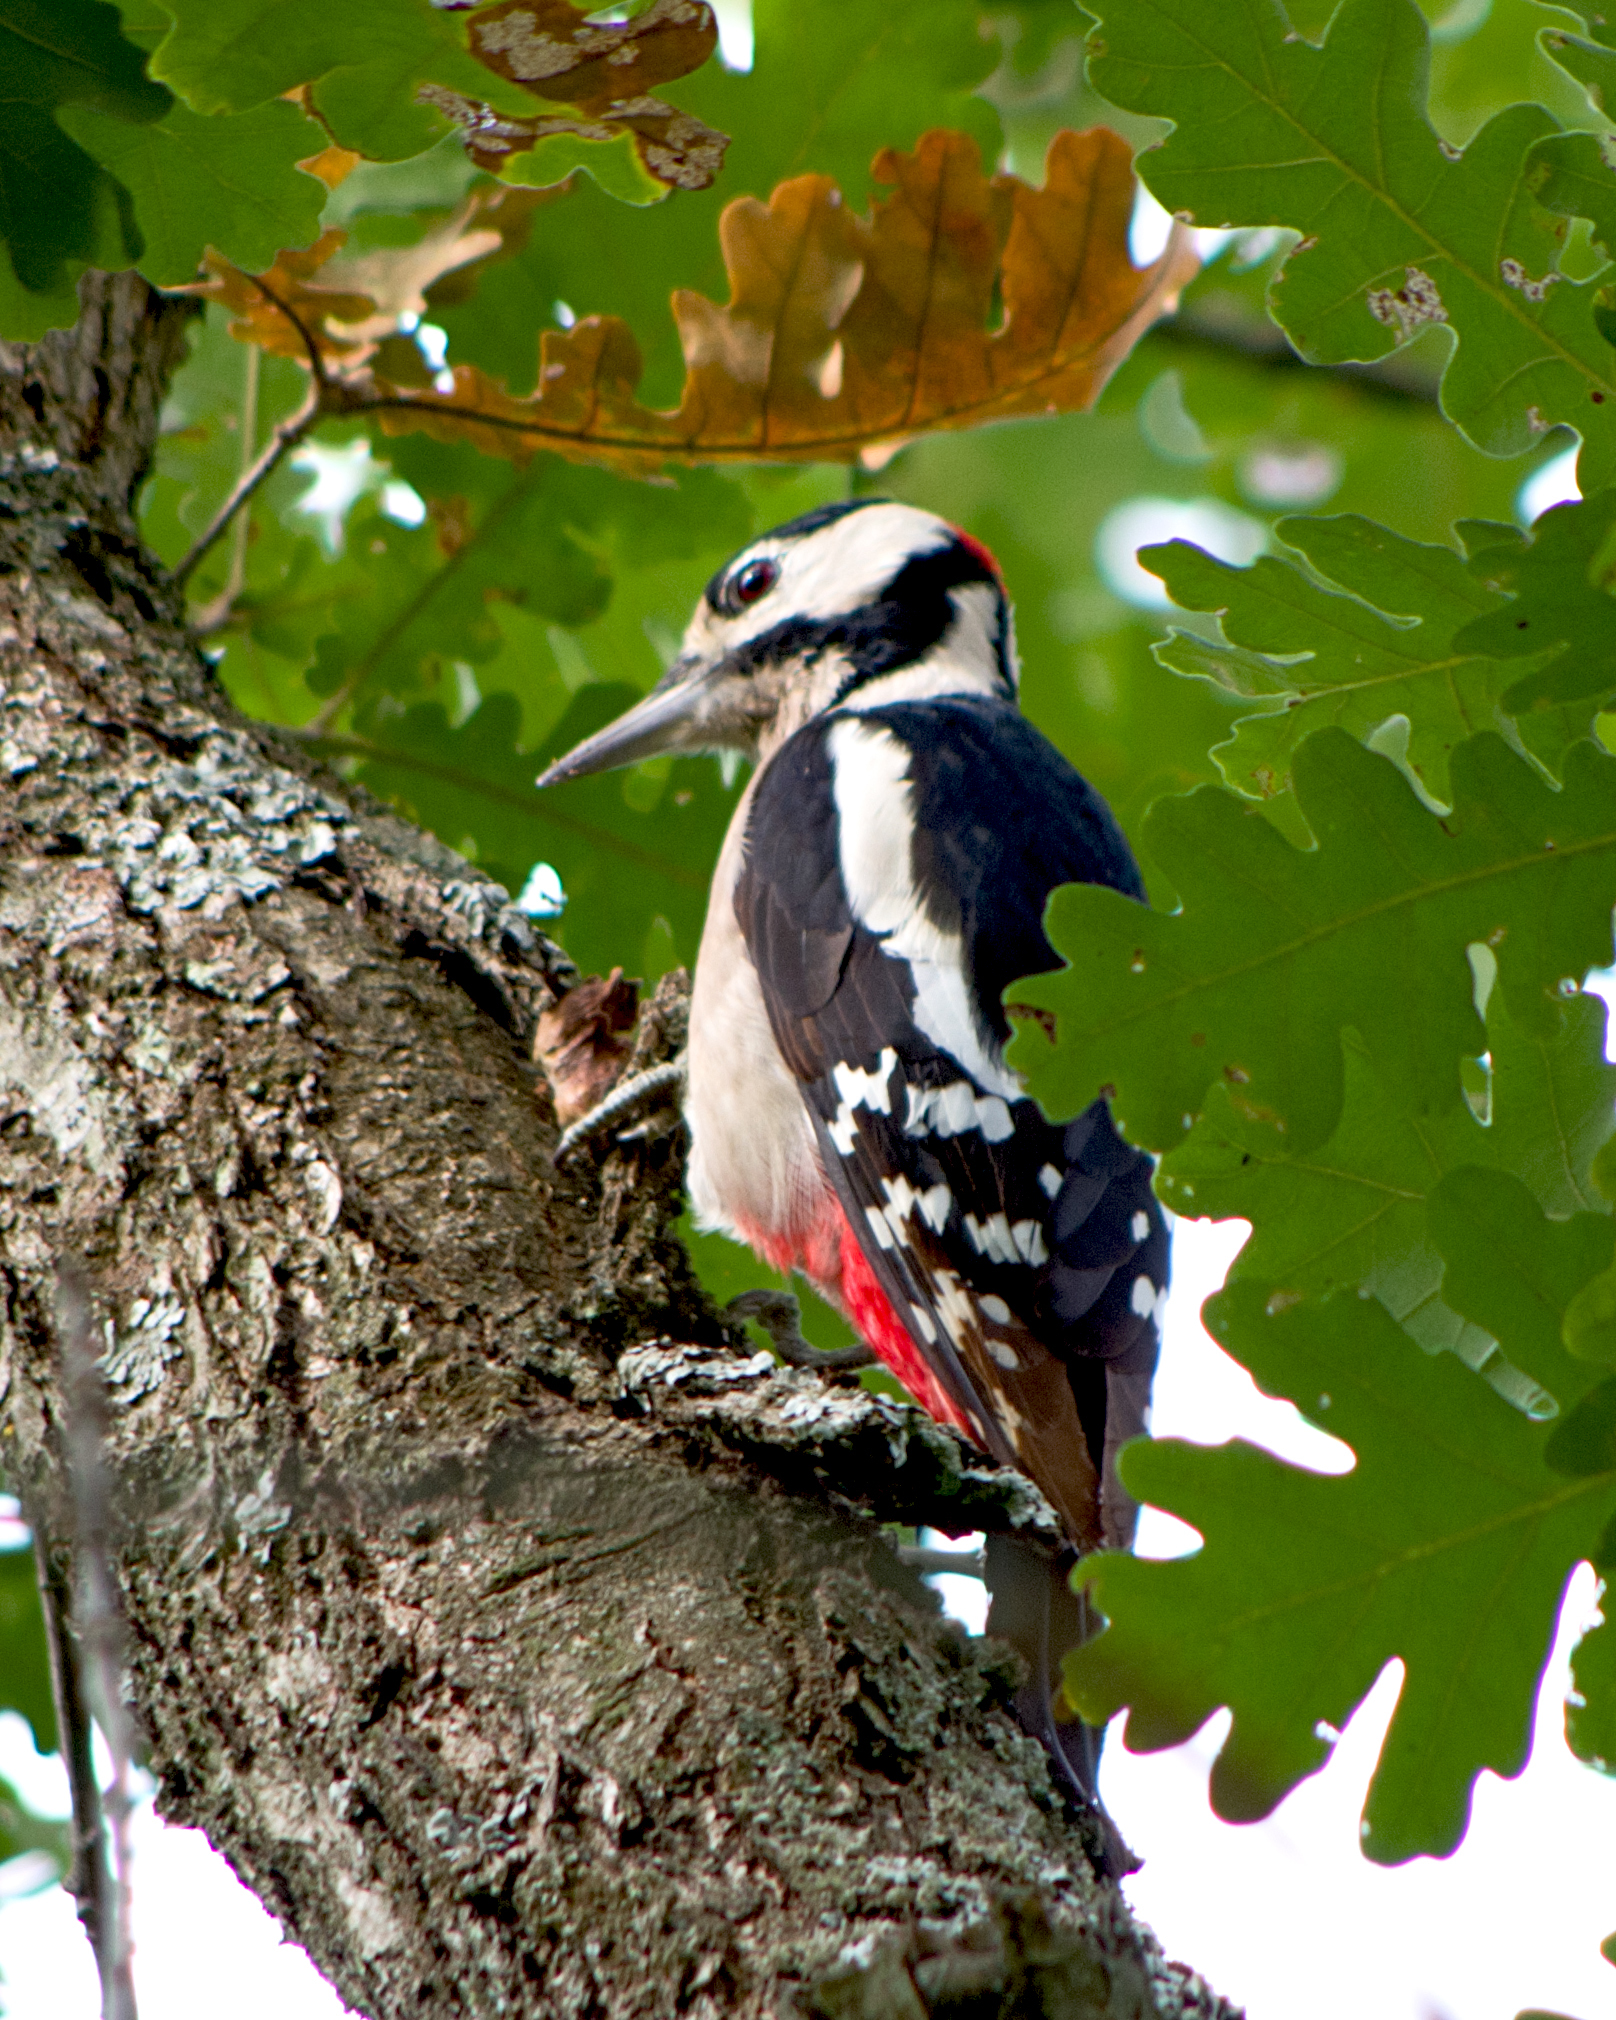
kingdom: Animalia
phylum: Chordata
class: Aves
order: Piciformes
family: Picidae
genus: Dendrocopos
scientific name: Dendrocopos major
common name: Great spotted woodpecker
